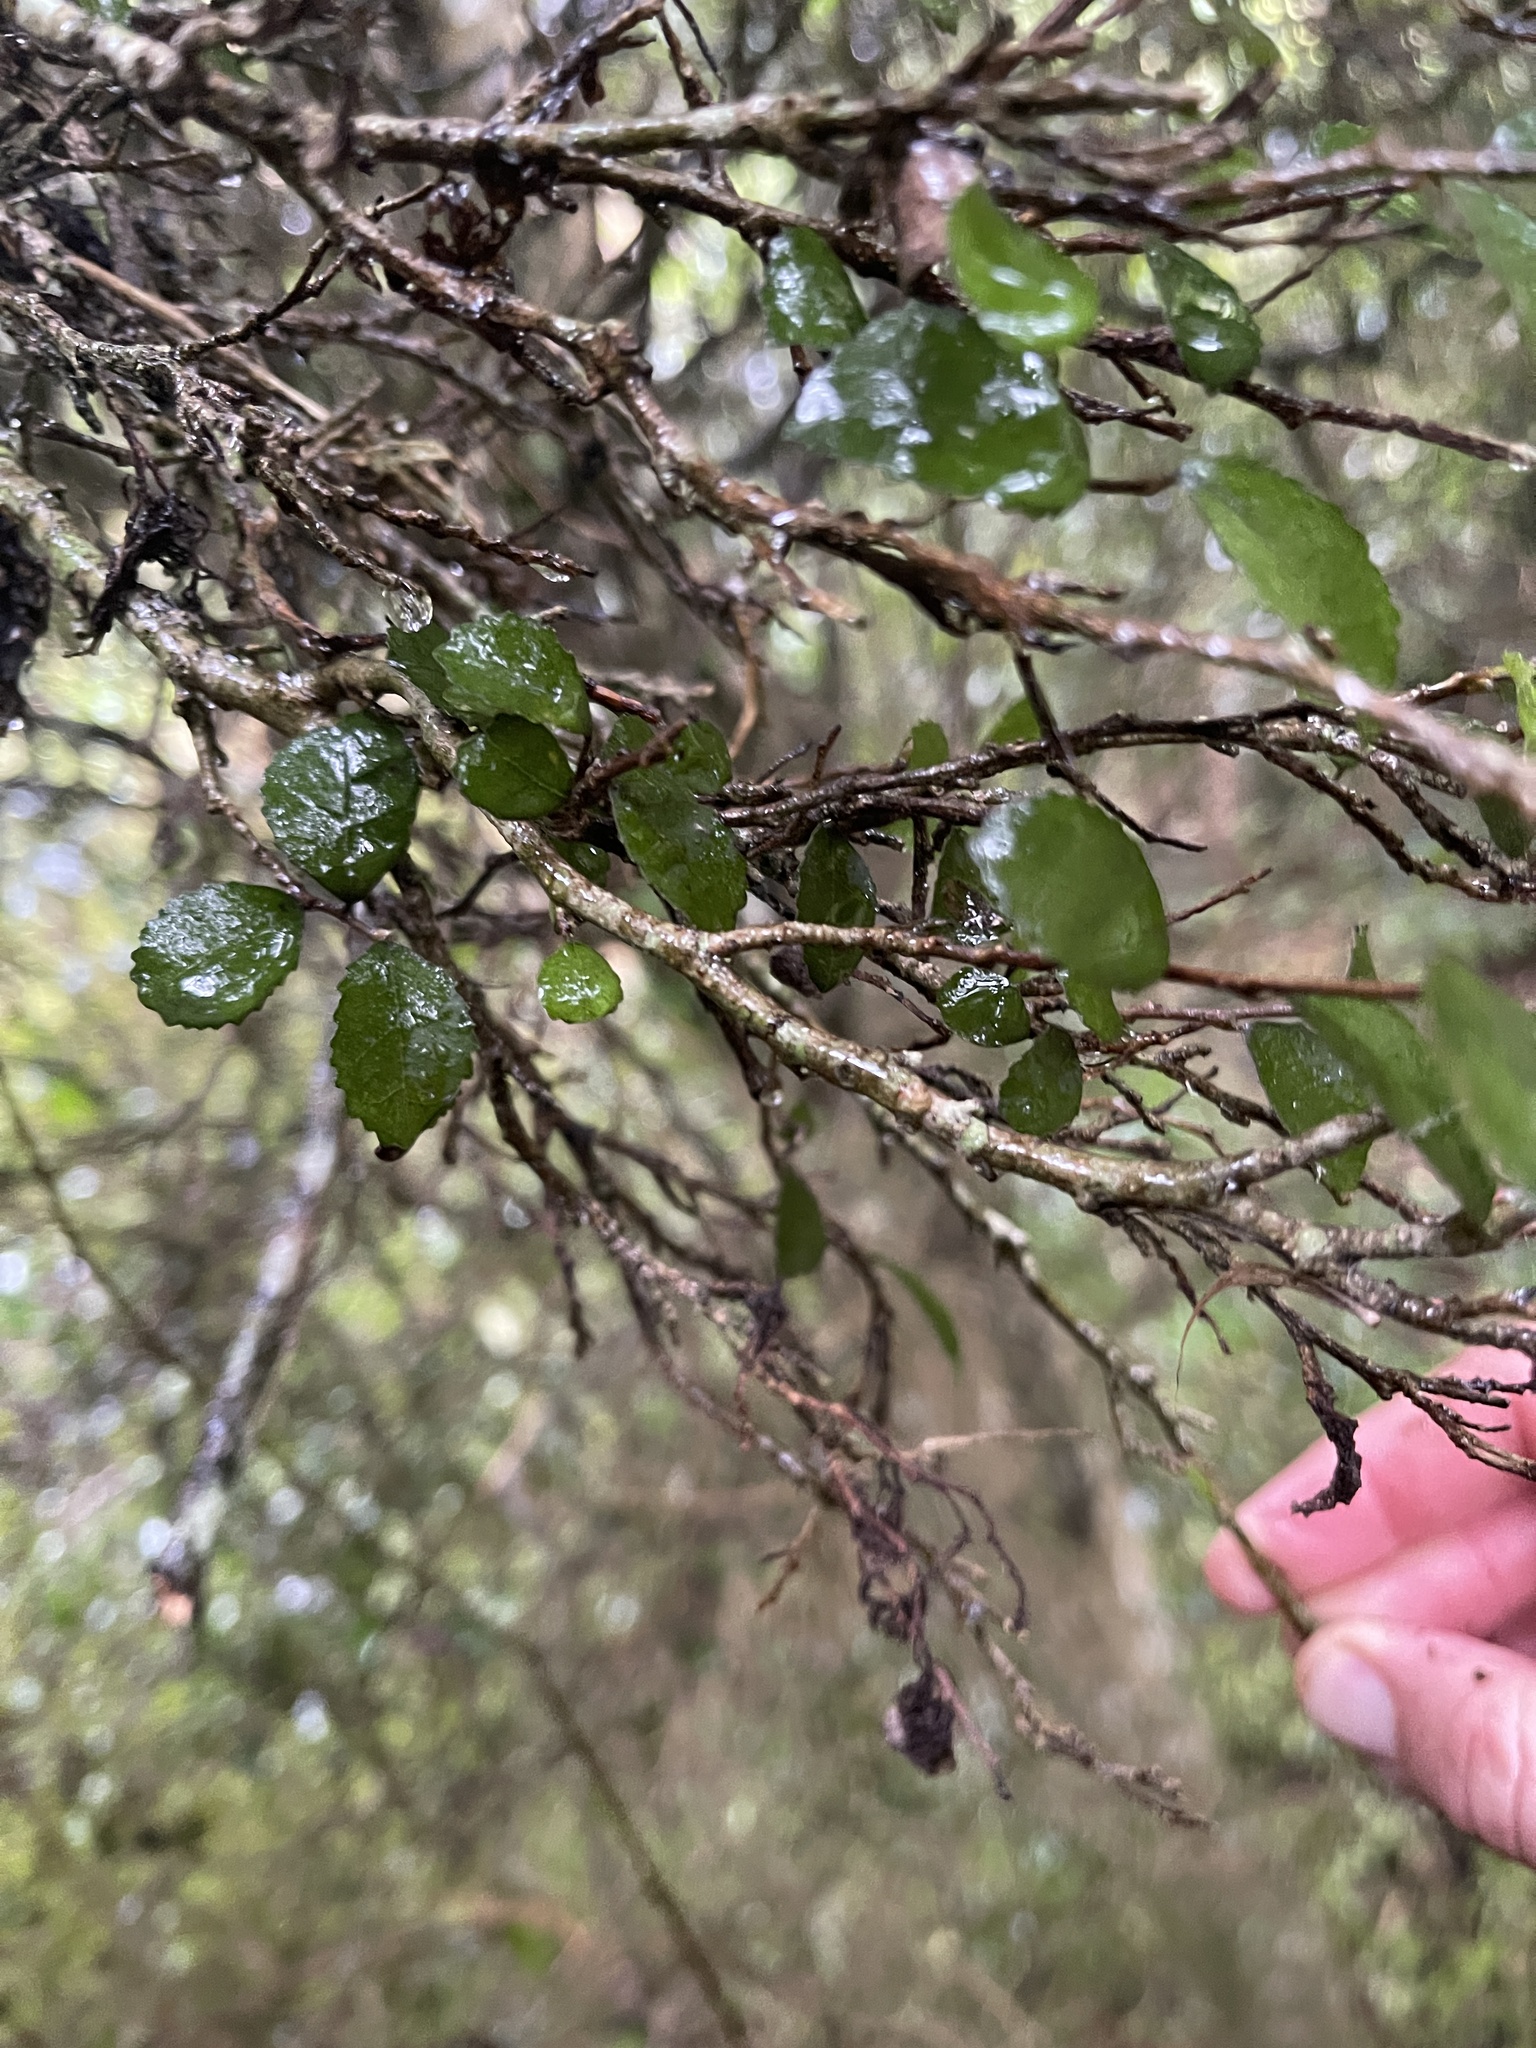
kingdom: Plantae
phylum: Tracheophyta
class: Magnoliopsida
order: Rosales
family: Moraceae
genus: Paratrophis
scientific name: Paratrophis microphylla
